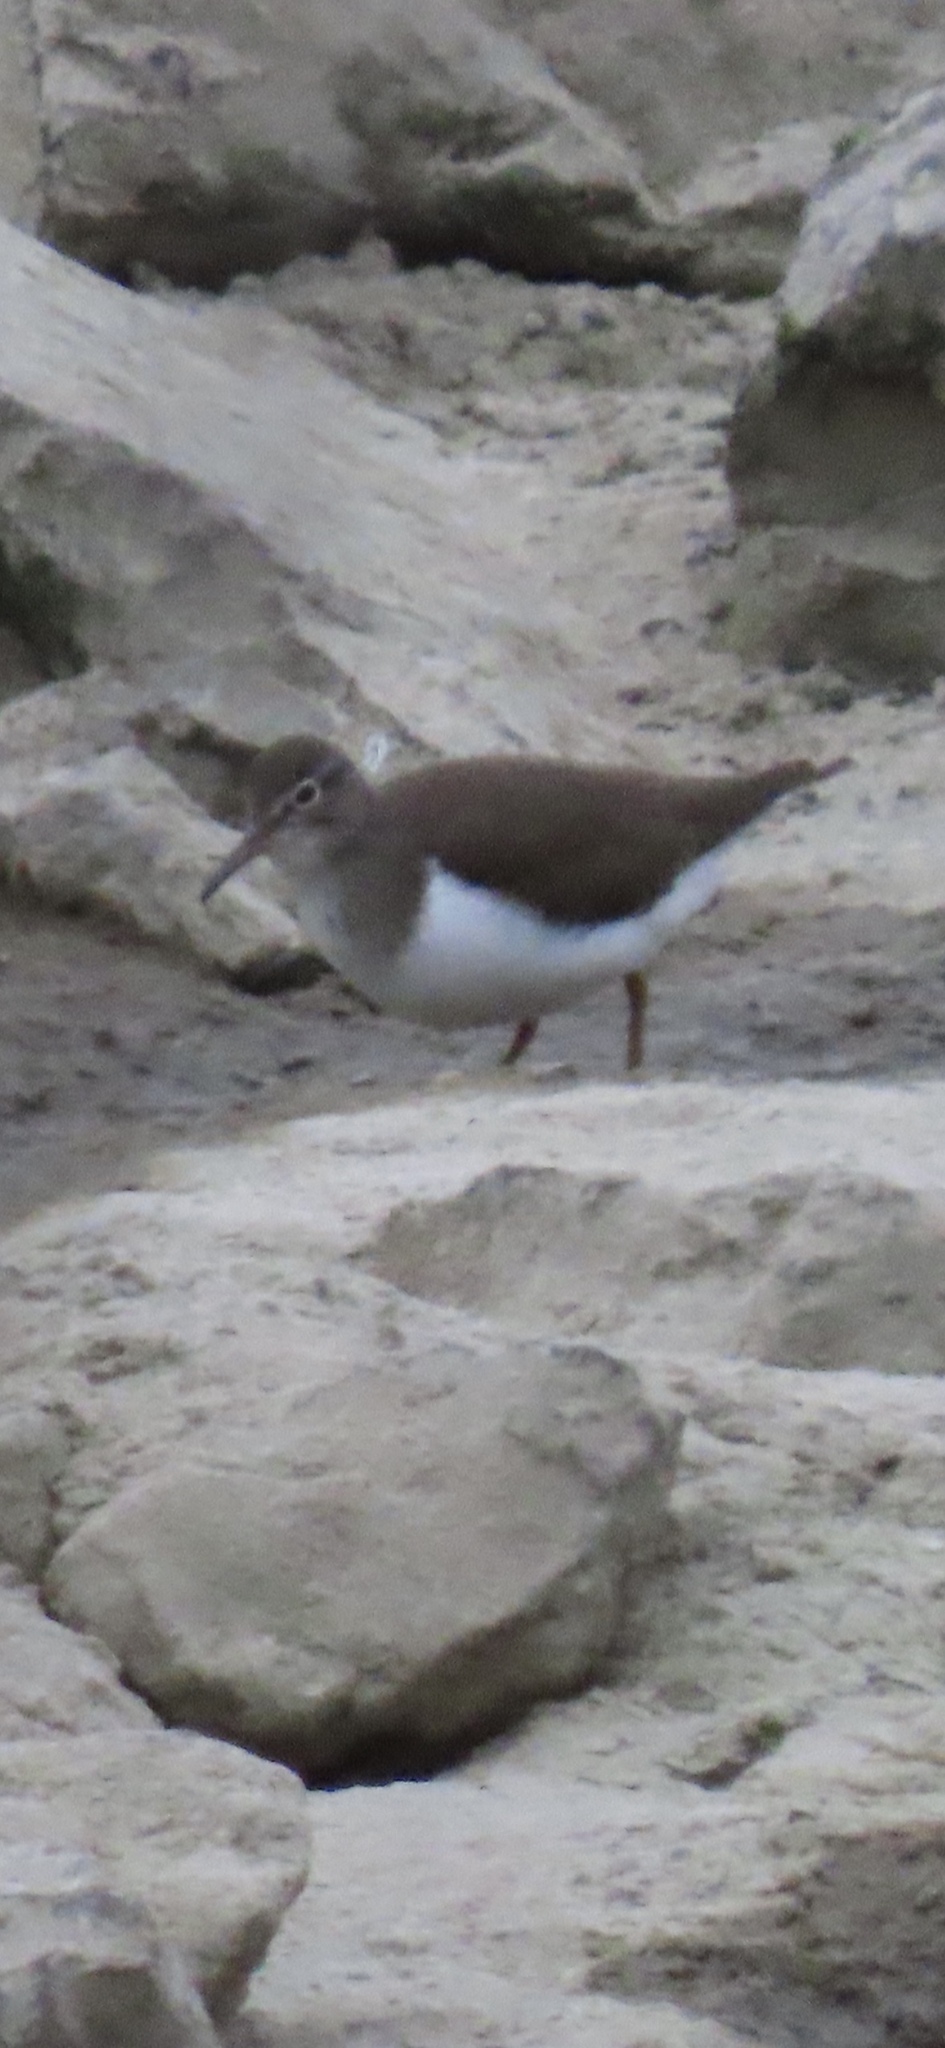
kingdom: Animalia
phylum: Chordata
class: Aves
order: Charadriiformes
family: Scolopacidae
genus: Actitis
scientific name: Actitis hypoleucos
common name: Common sandpiper
